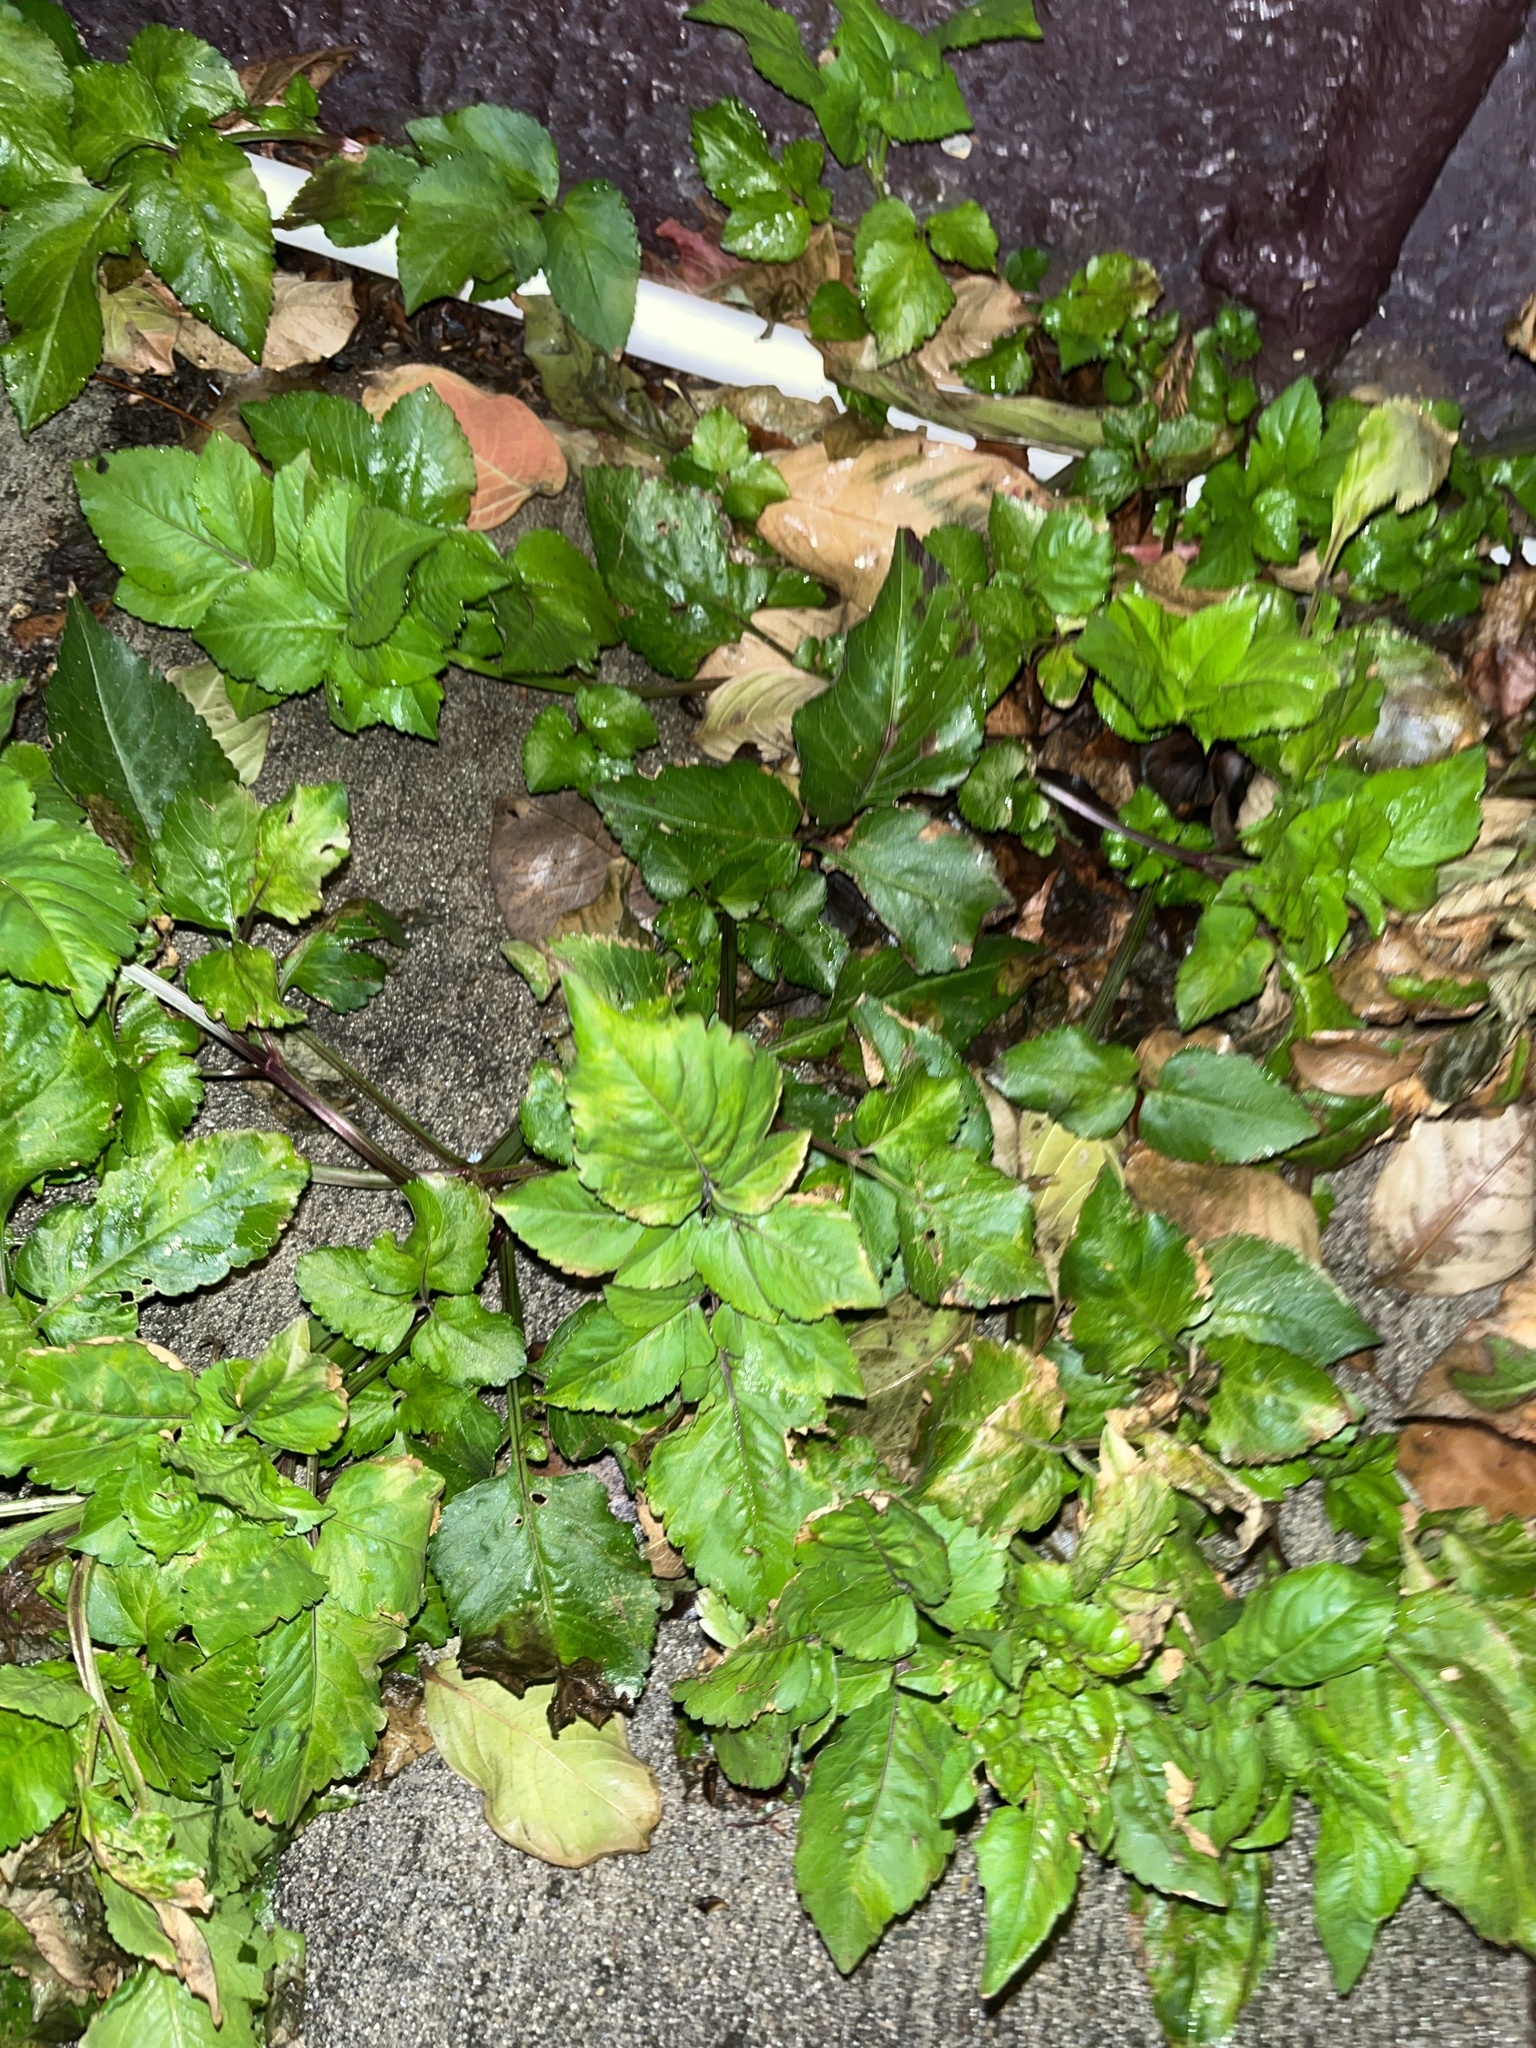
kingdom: Plantae
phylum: Tracheophyta
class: Magnoliopsida
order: Asterales
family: Asteraceae
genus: Bidens
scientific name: Bidens alba
